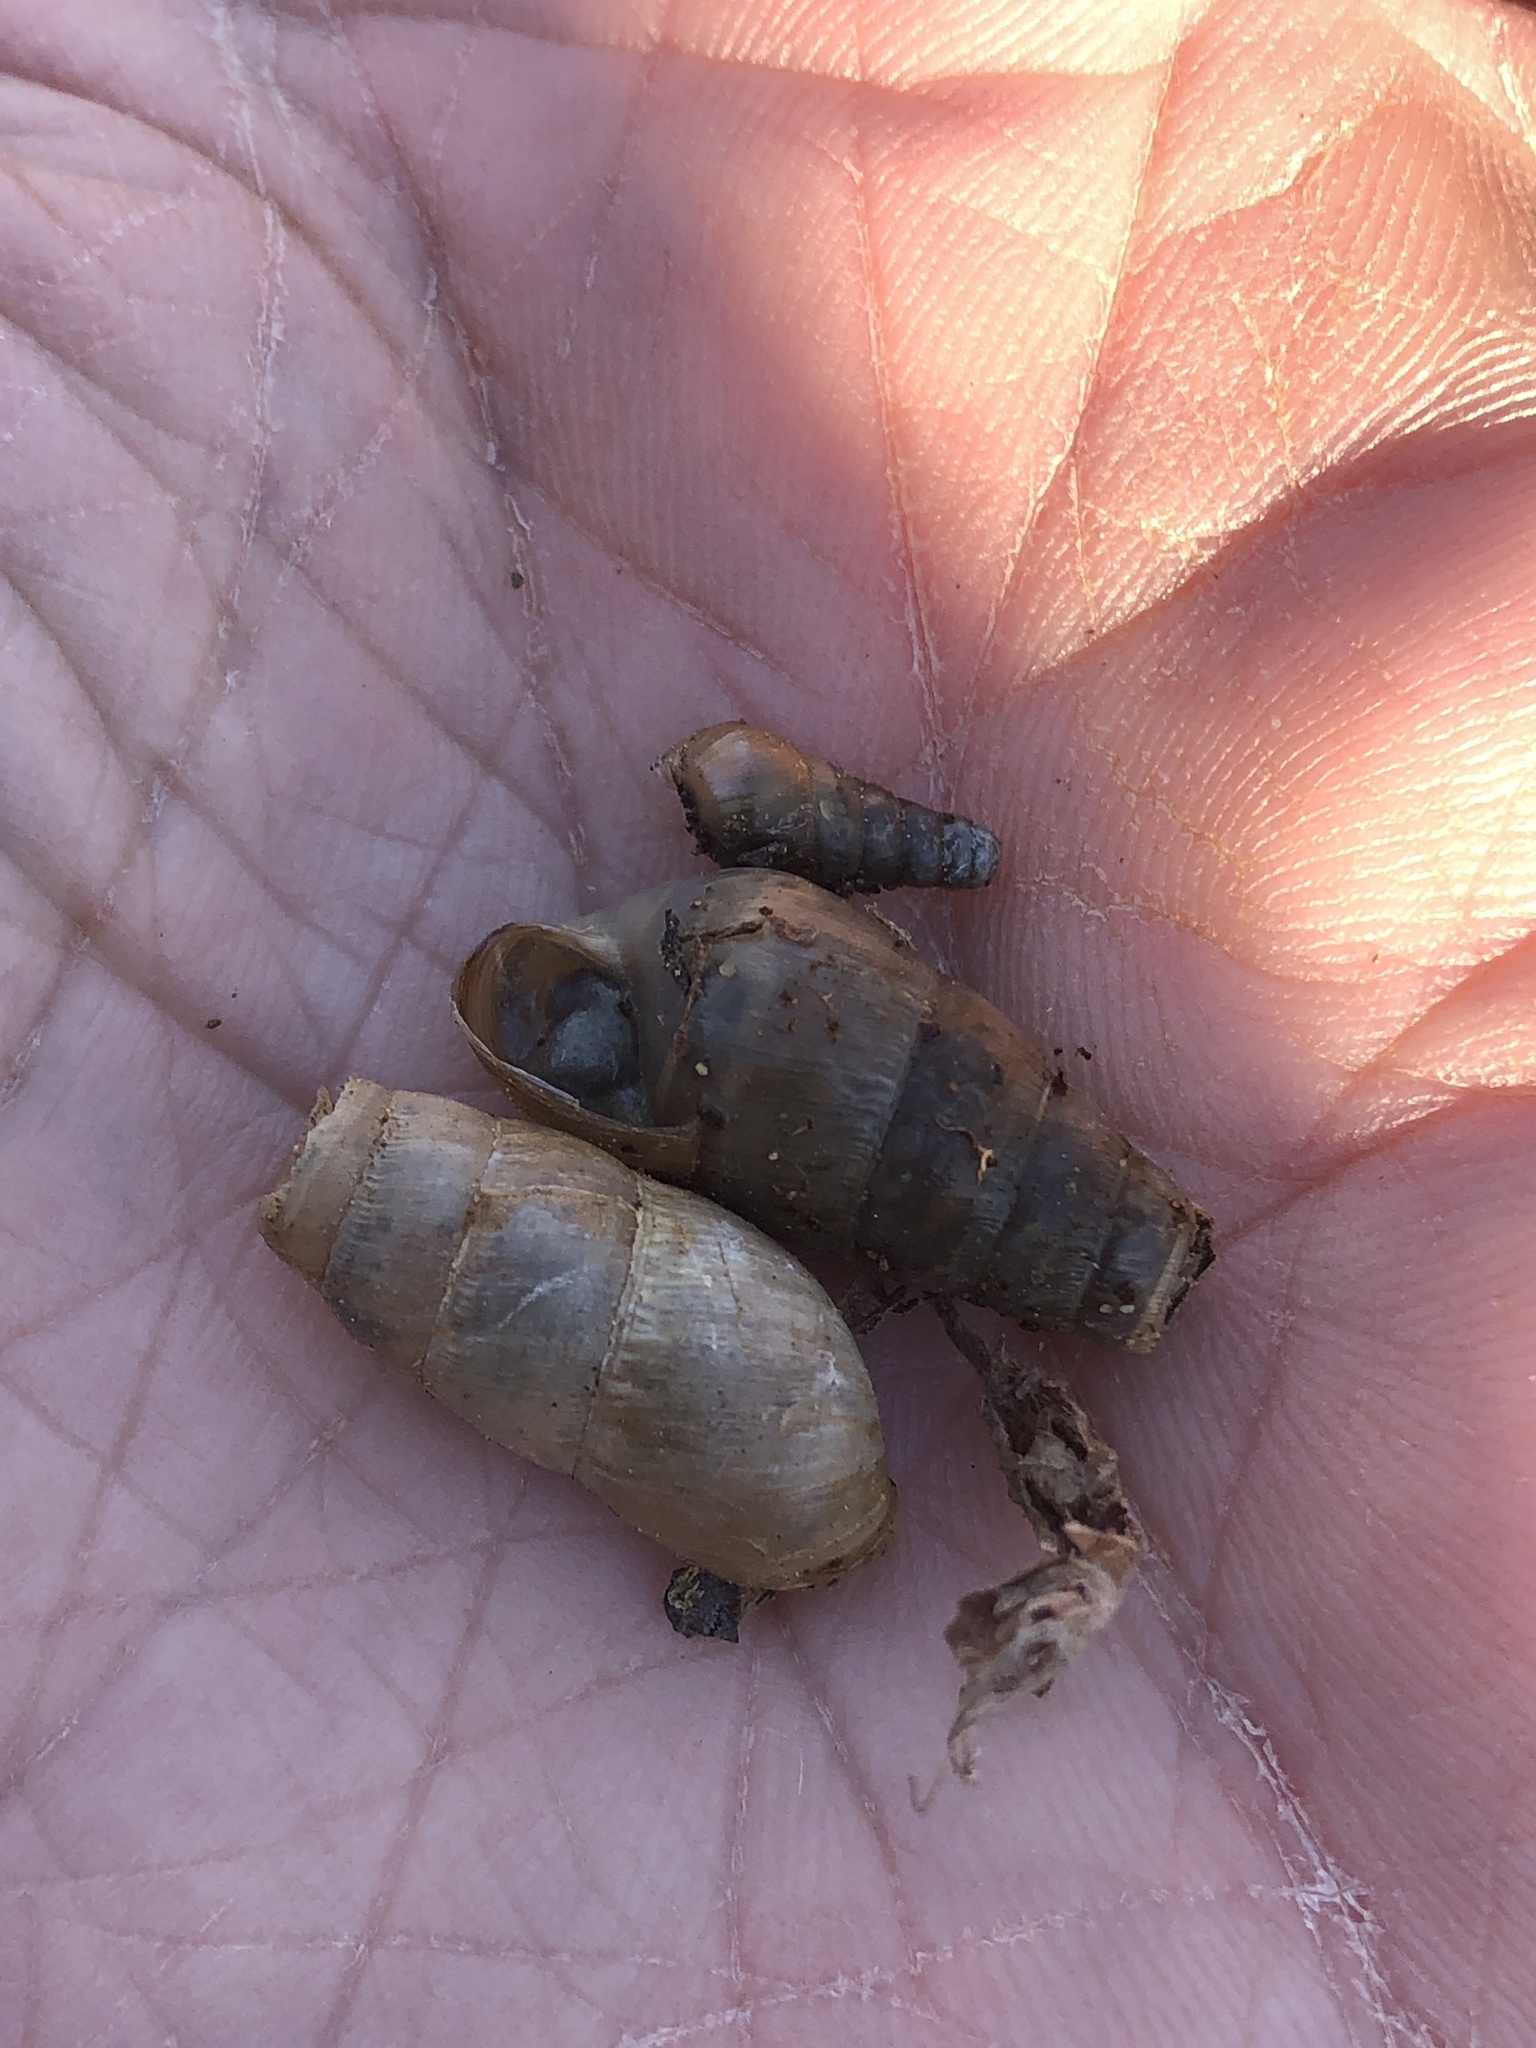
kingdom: Animalia
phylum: Mollusca
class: Gastropoda
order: Stylommatophora
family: Achatinidae
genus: Rumina
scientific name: Rumina decollata
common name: Decollate snail
